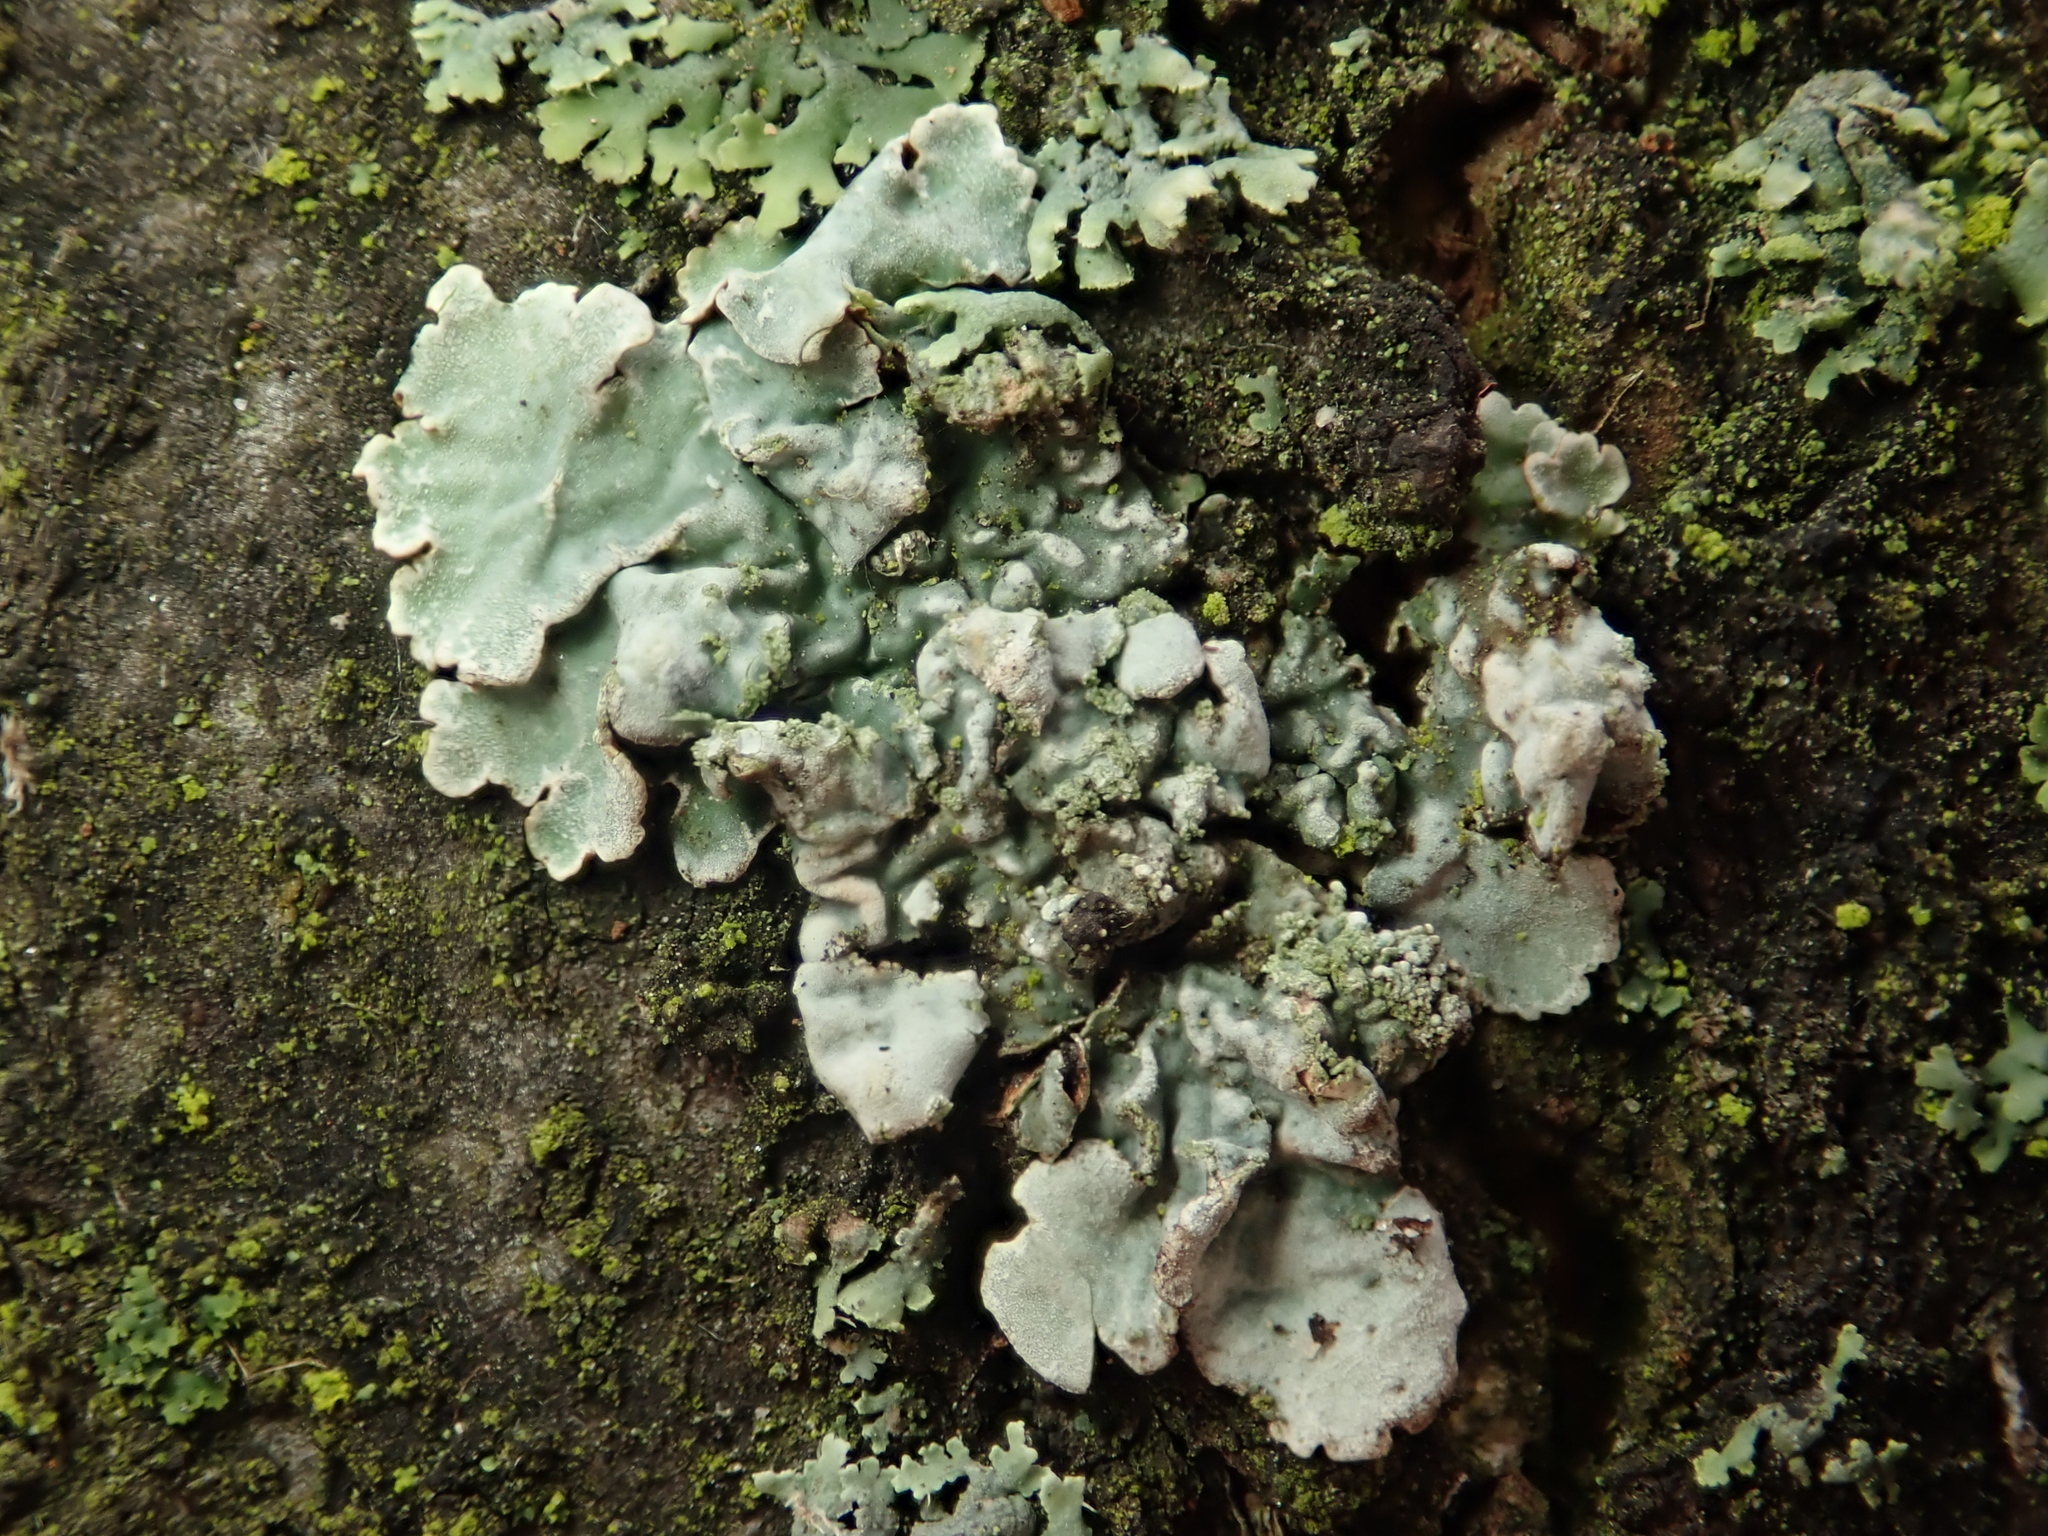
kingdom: Fungi
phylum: Ascomycota
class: Lecanoromycetes
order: Lecanorales
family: Parmeliaceae
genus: Parmelia
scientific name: Parmelia sulcata
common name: Netted shield lichen
